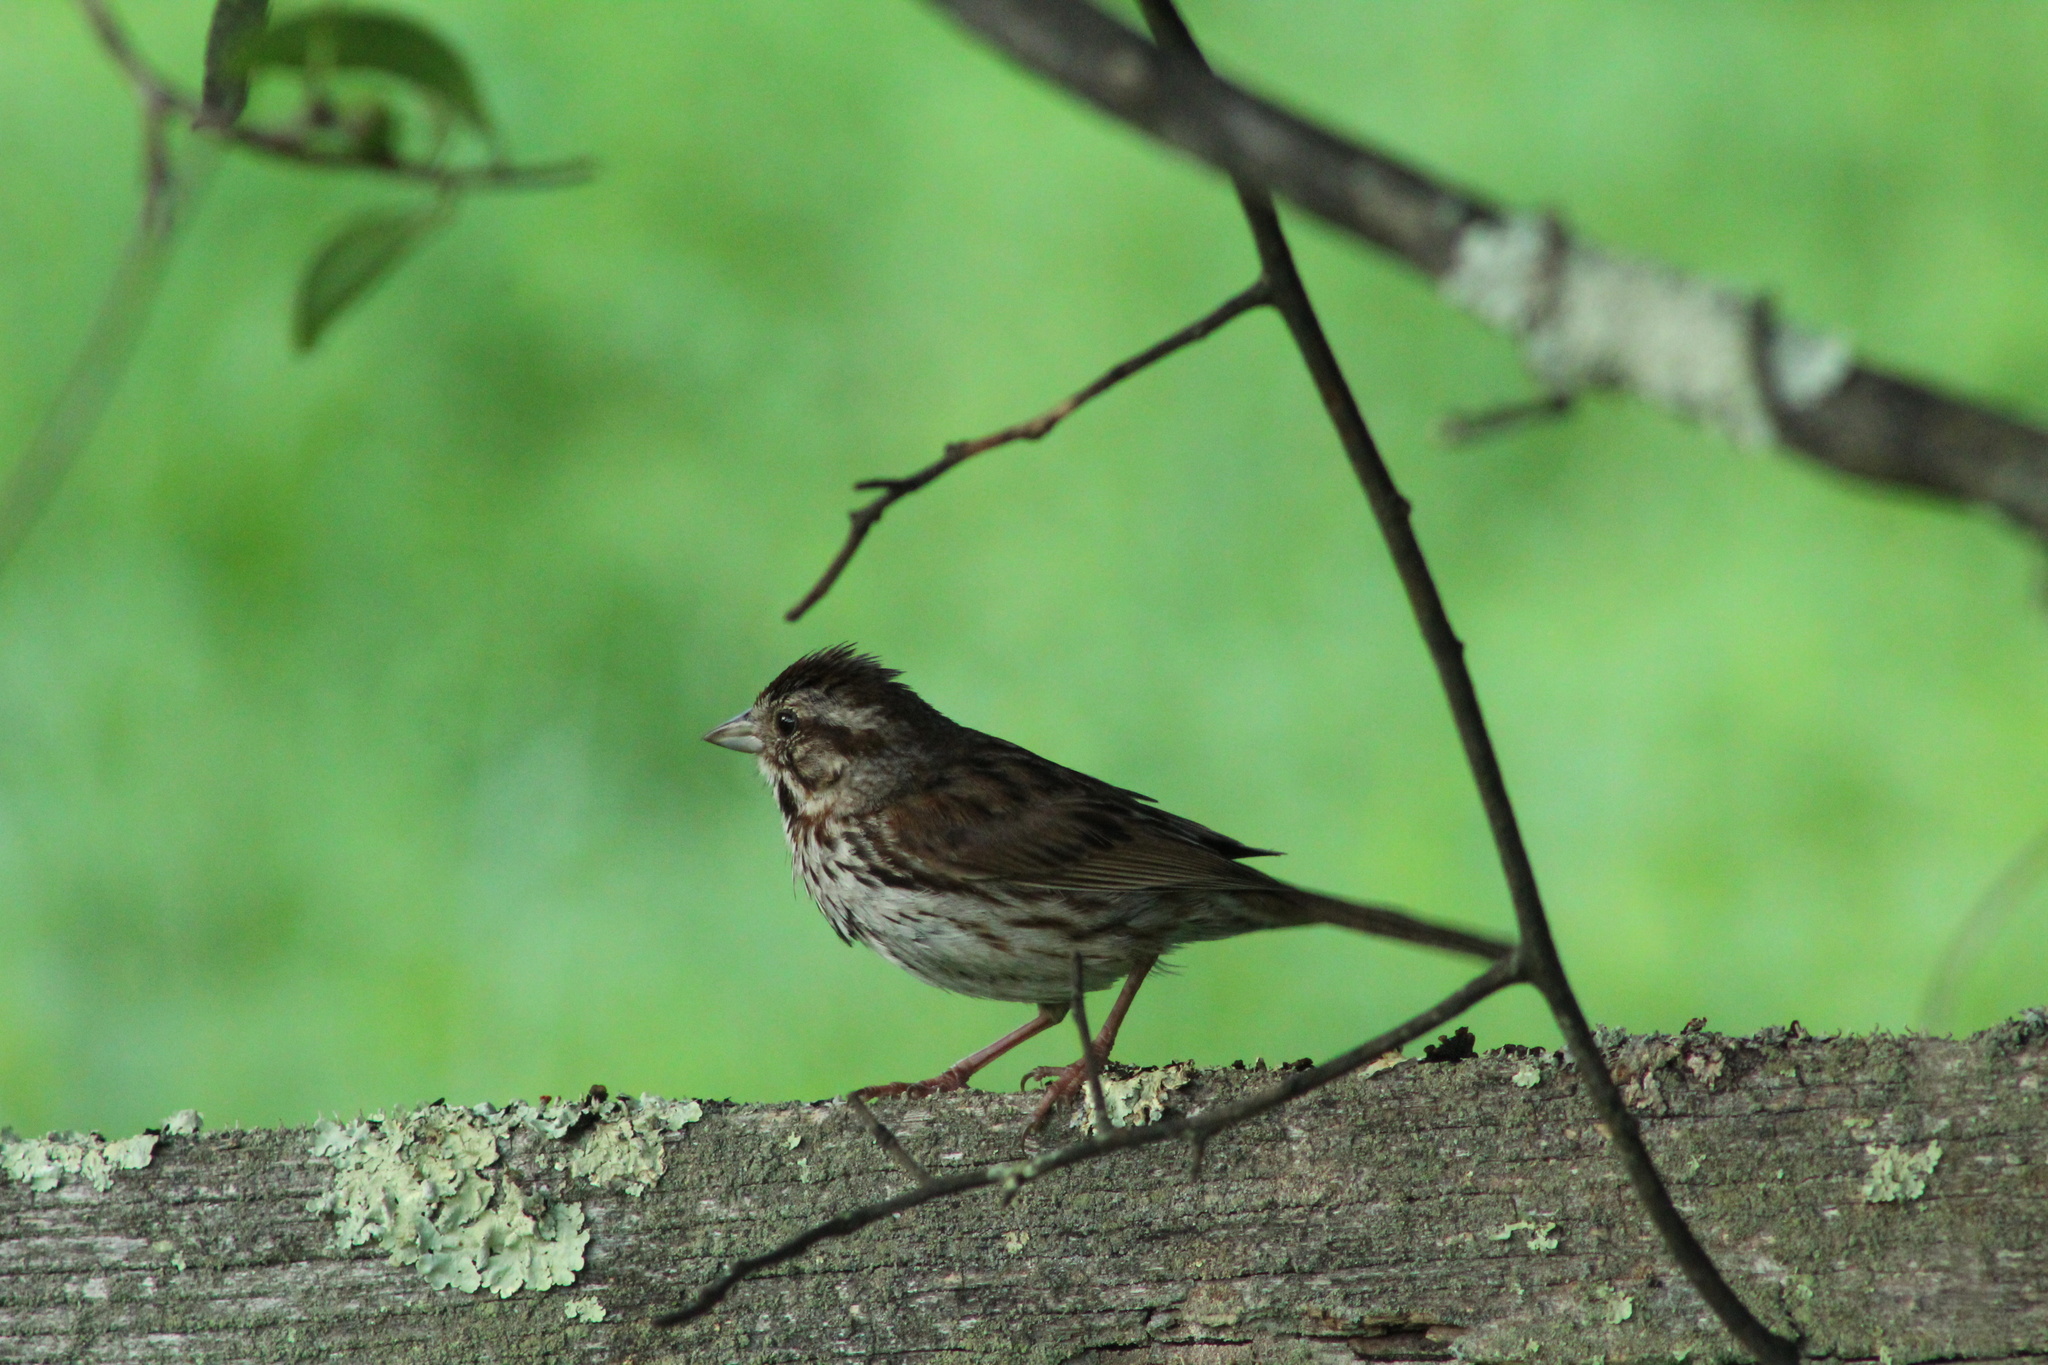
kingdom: Animalia
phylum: Chordata
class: Aves
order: Passeriformes
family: Passerellidae
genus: Melospiza
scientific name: Melospiza melodia
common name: Song sparrow
